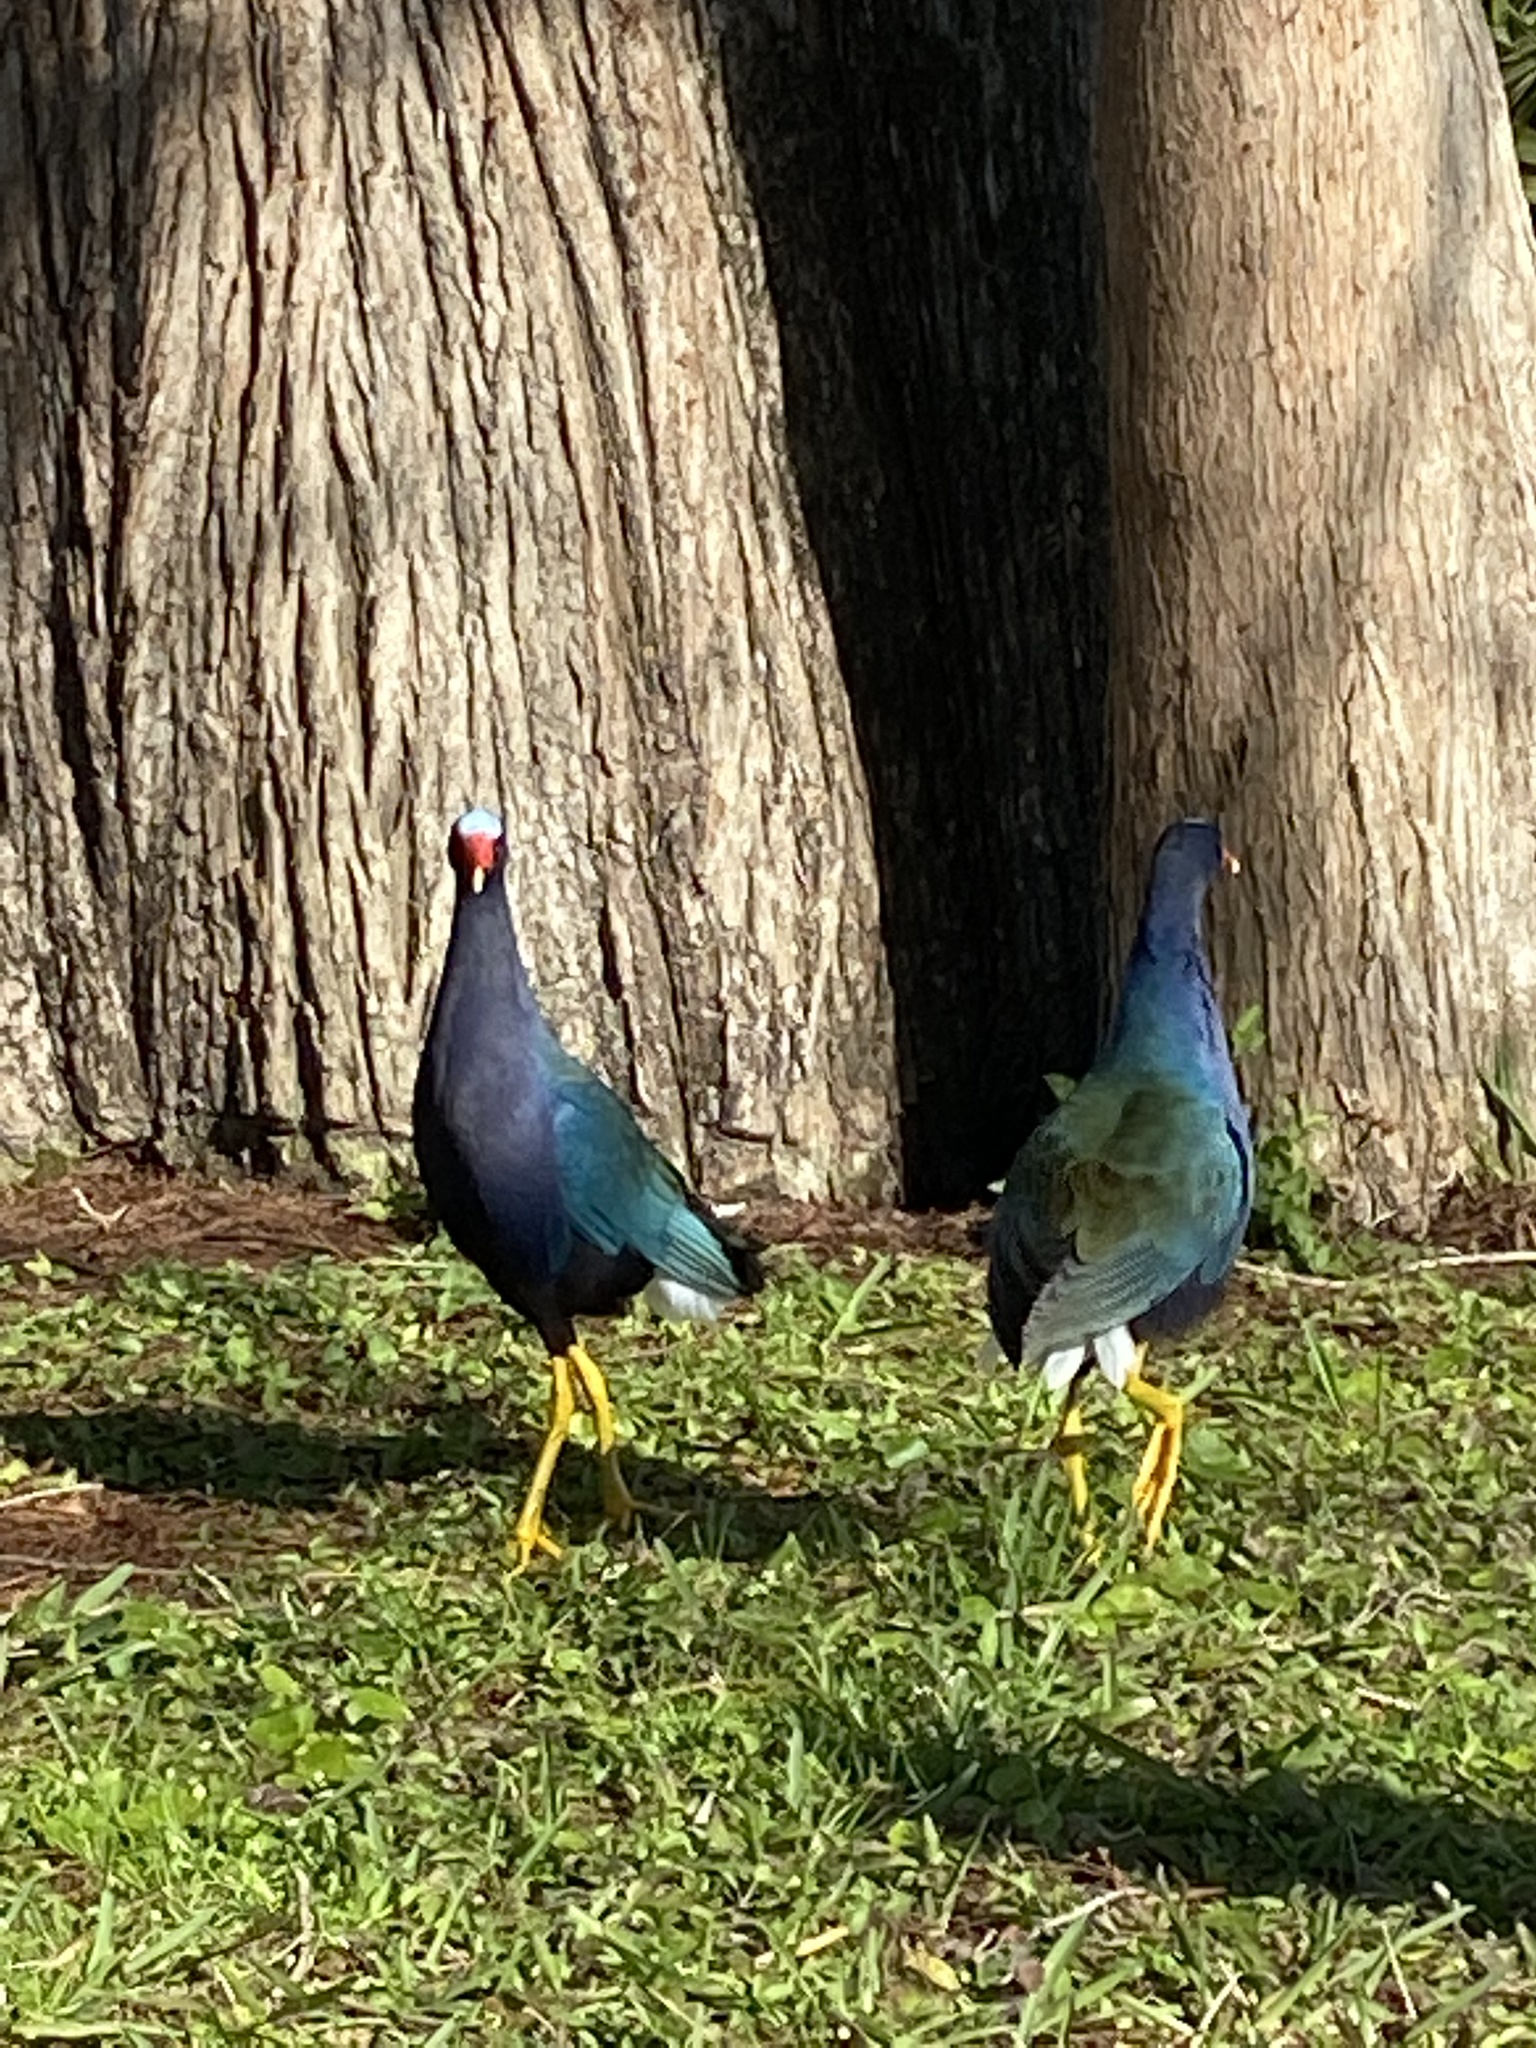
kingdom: Animalia
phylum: Chordata
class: Aves
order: Gruiformes
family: Rallidae
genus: Porphyrio
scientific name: Porphyrio martinica
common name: Purple gallinule
